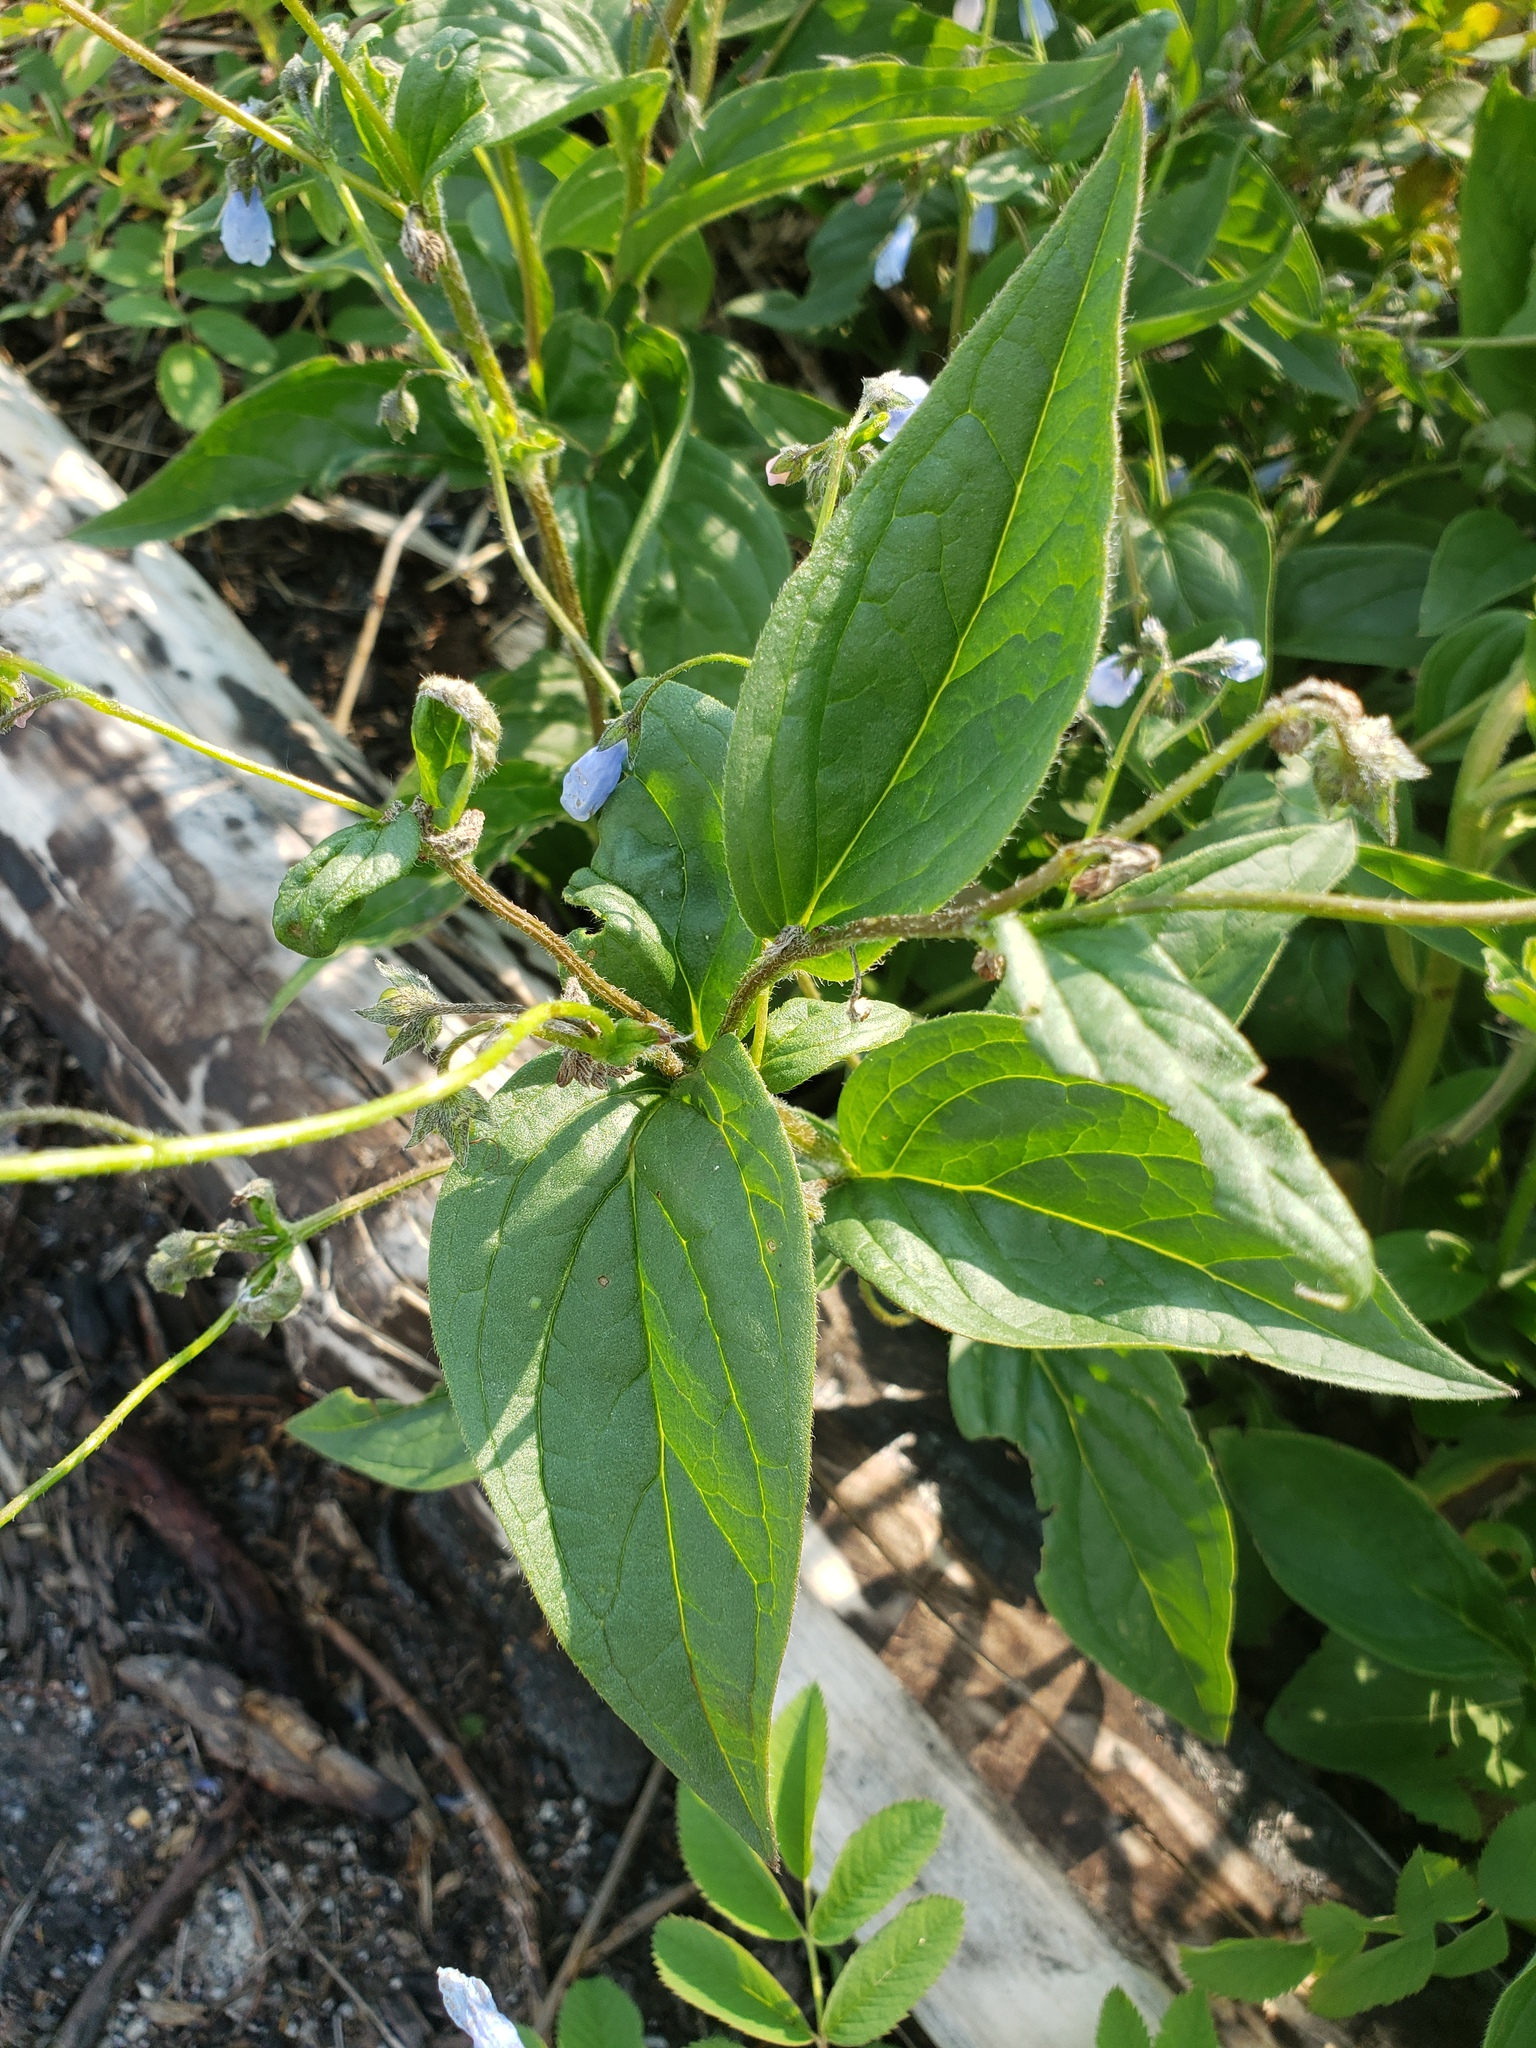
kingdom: Plantae
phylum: Tracheophyta
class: Magnoliopsida
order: Boraginales
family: Boraginaceae
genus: Mertensia
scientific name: Mertensia paniculata
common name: Panicled bluebells
